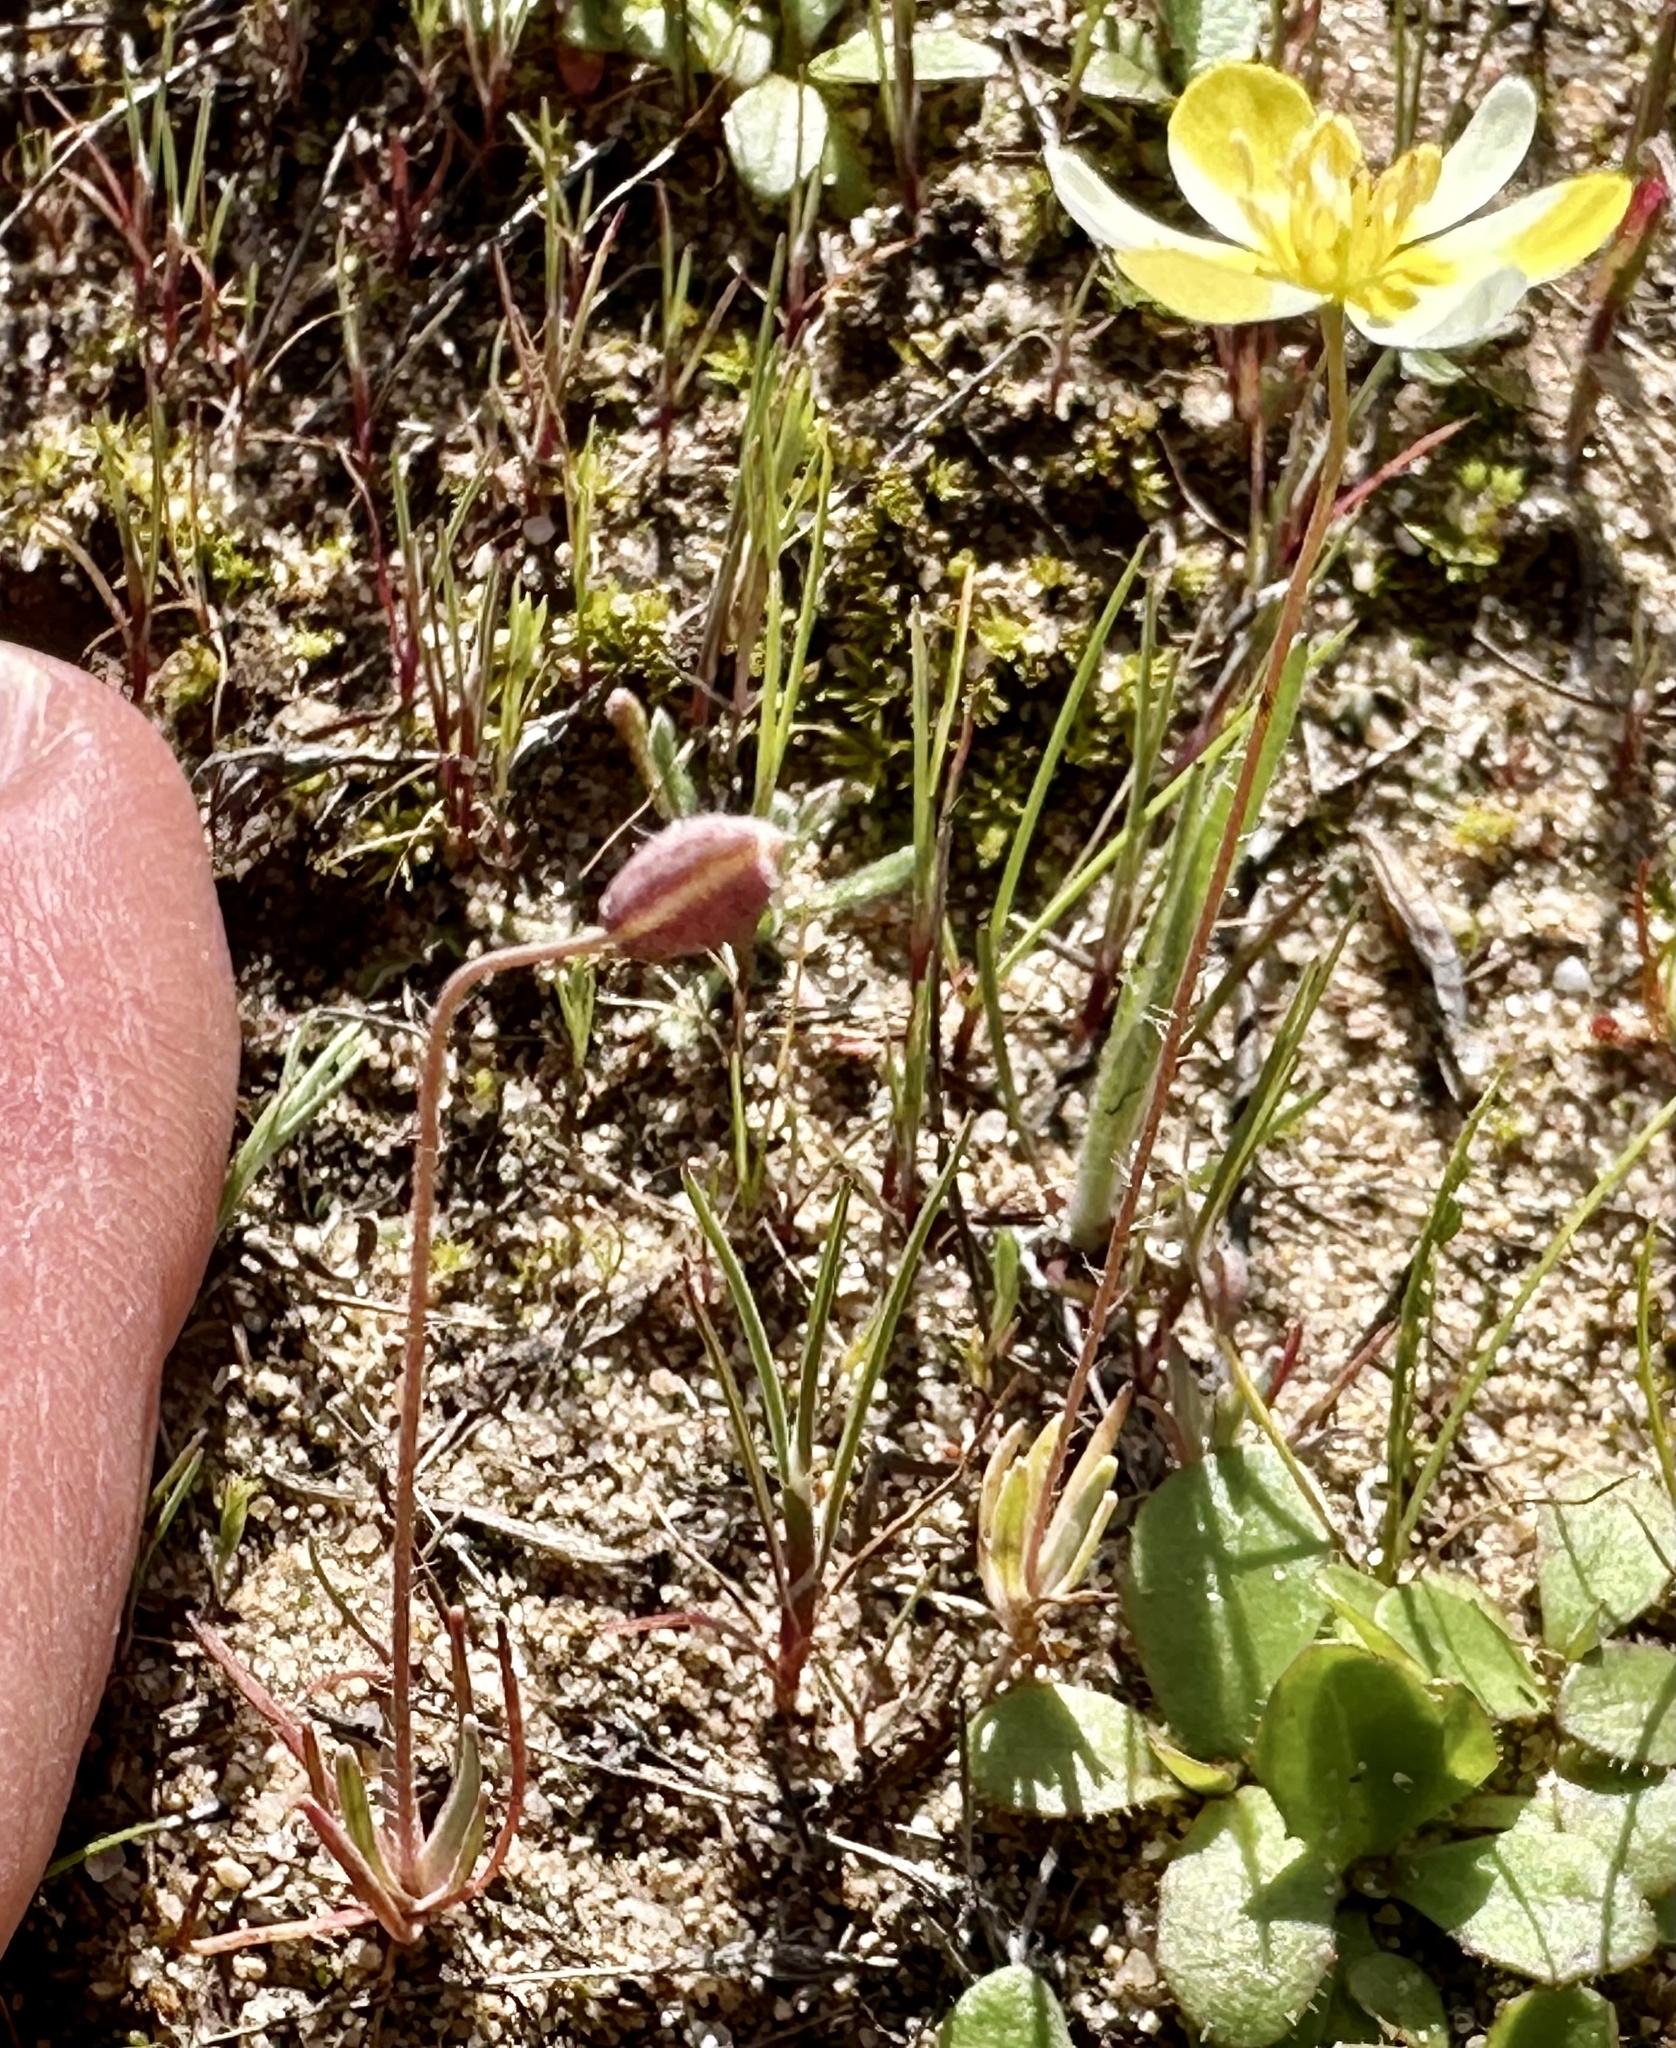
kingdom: Plantae
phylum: Tracheophyta
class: Magnoliopsida
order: Ranunculales
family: Papaveraceae
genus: Platystigma
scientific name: Platystigma lineare
